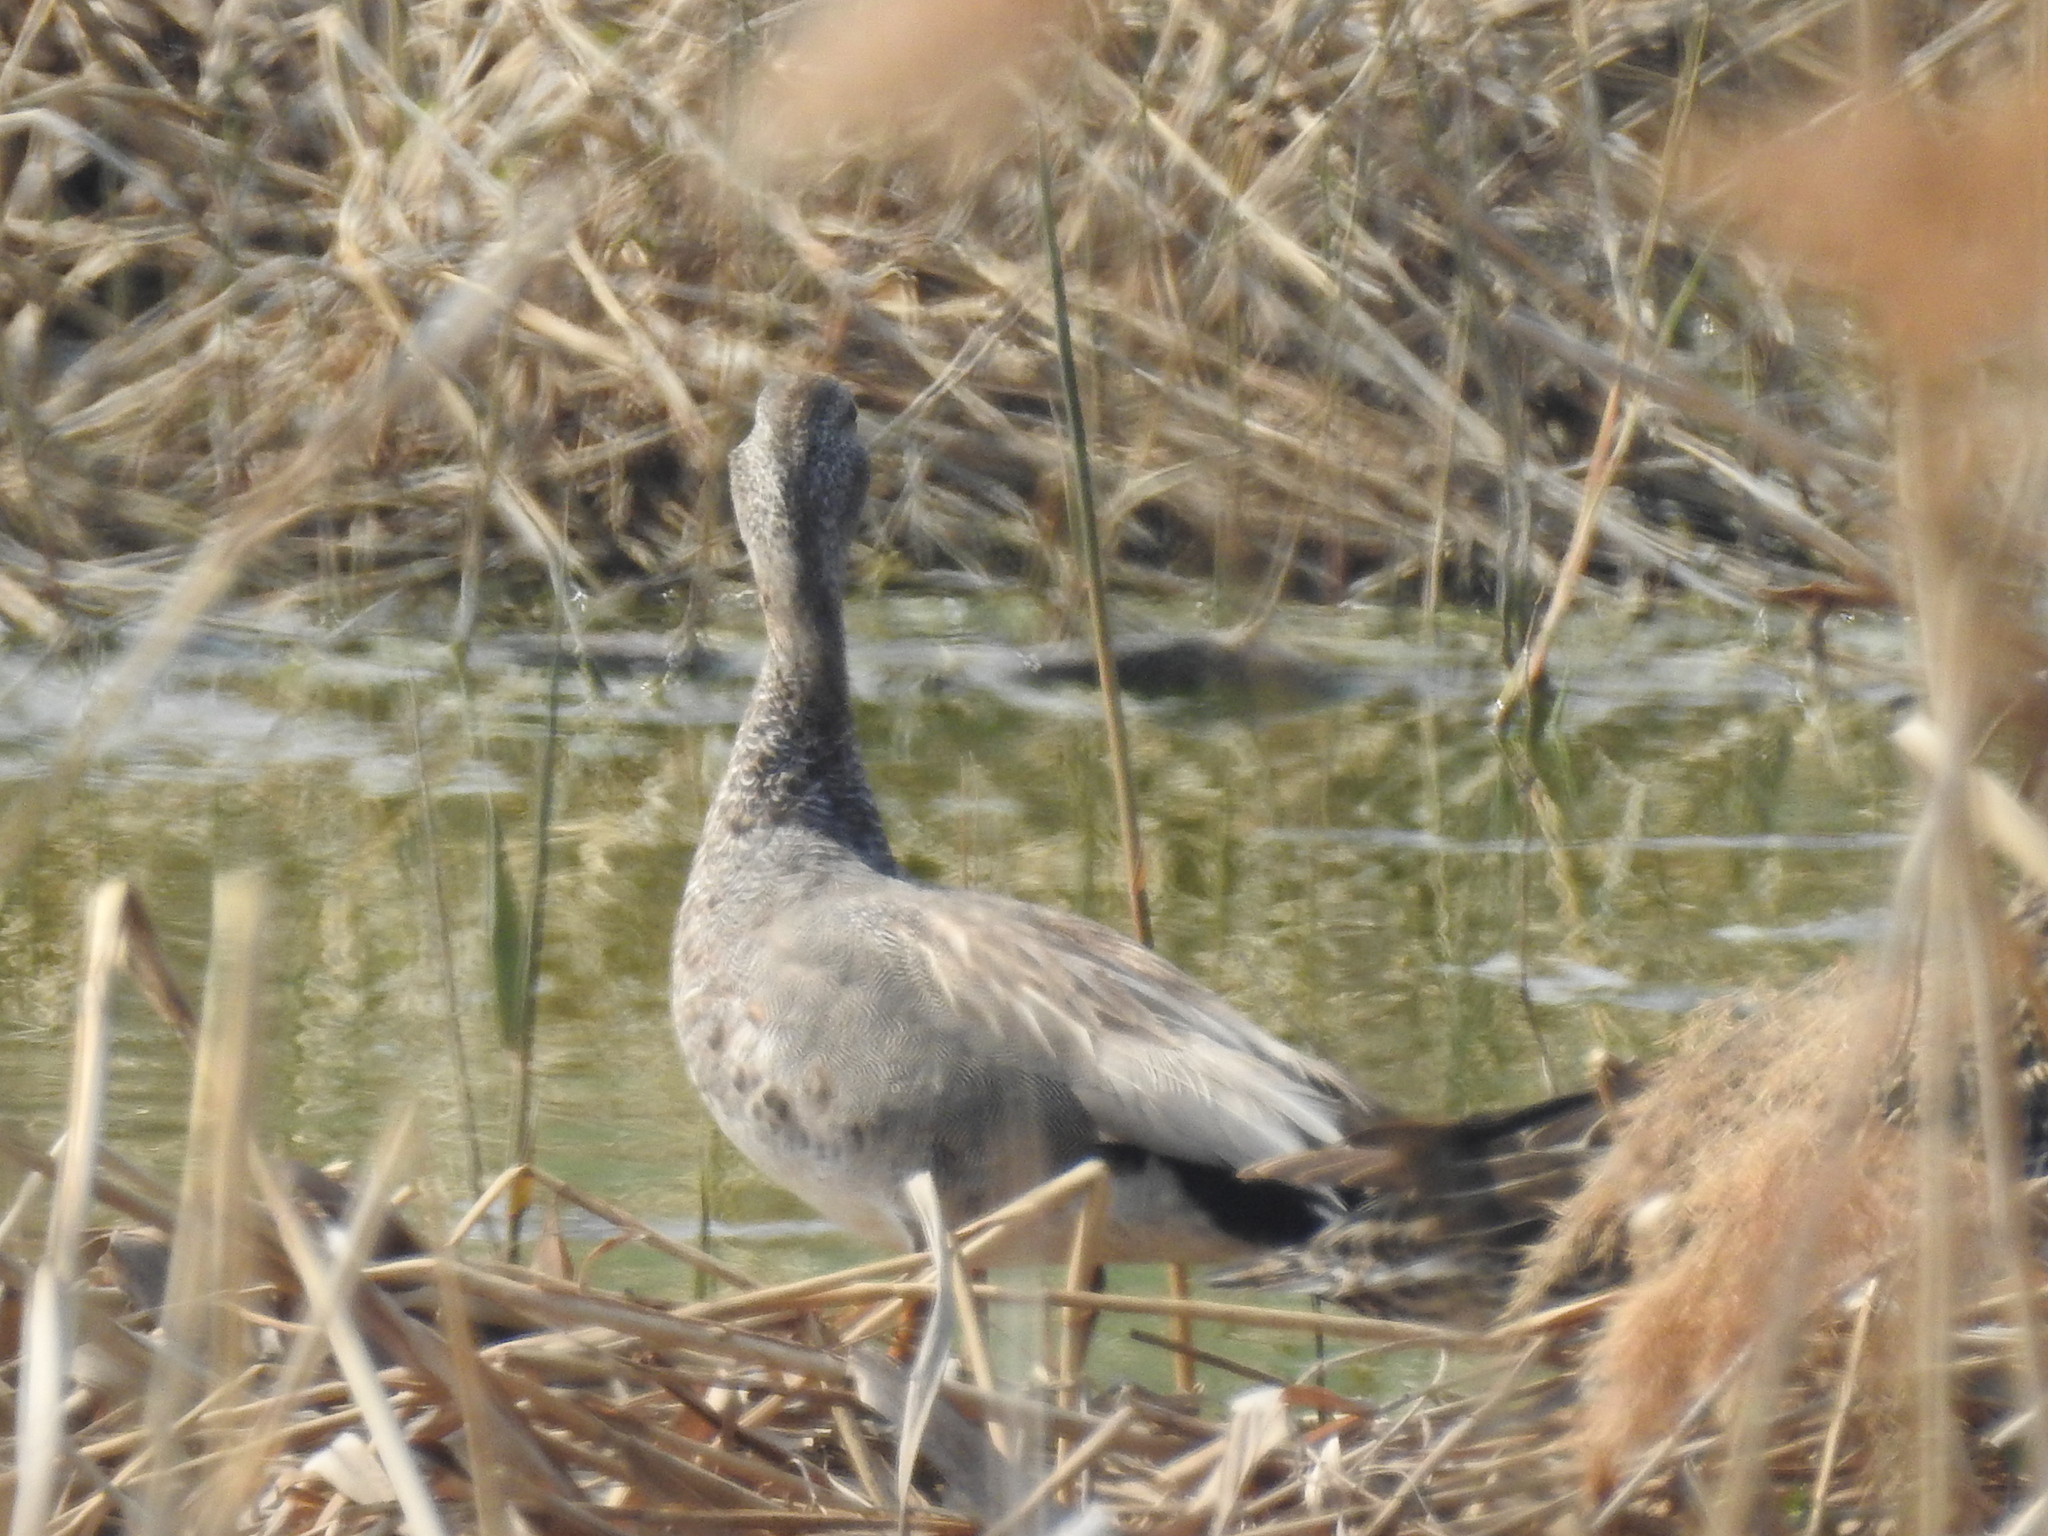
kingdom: Animalia
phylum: Chordata
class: Aves
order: Anseriformes
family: Anatidae
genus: Mareca
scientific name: Mareca strepera
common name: Gadwall
